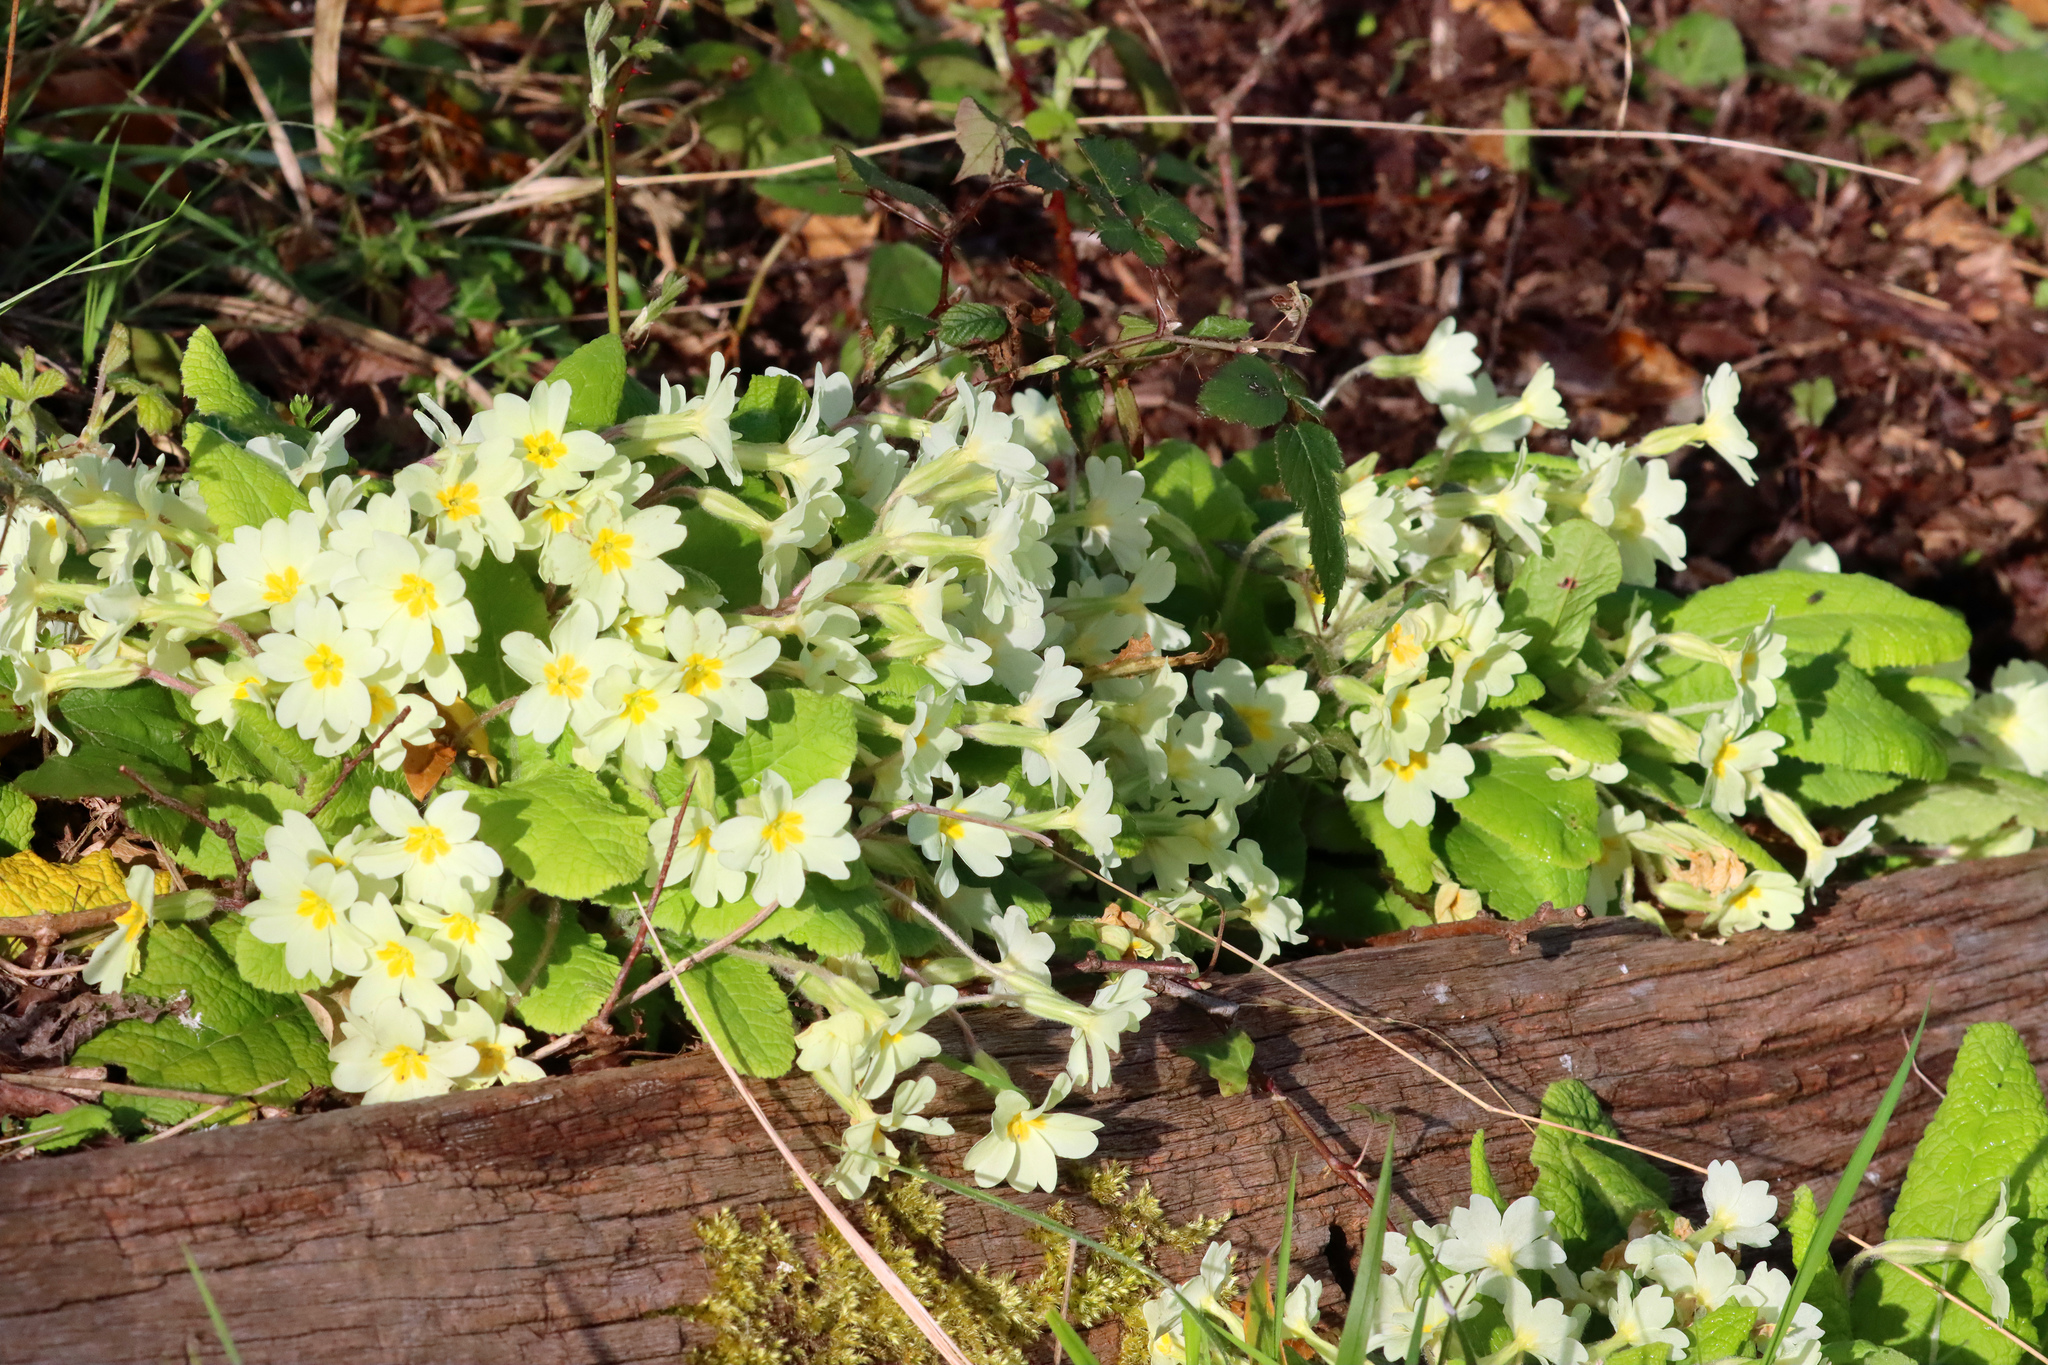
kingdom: Plantae
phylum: Tracheophyta
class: Magnoliopsida
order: Ericales
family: Primulaceae
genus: Primula
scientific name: Primula vulgaris
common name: Primrose
